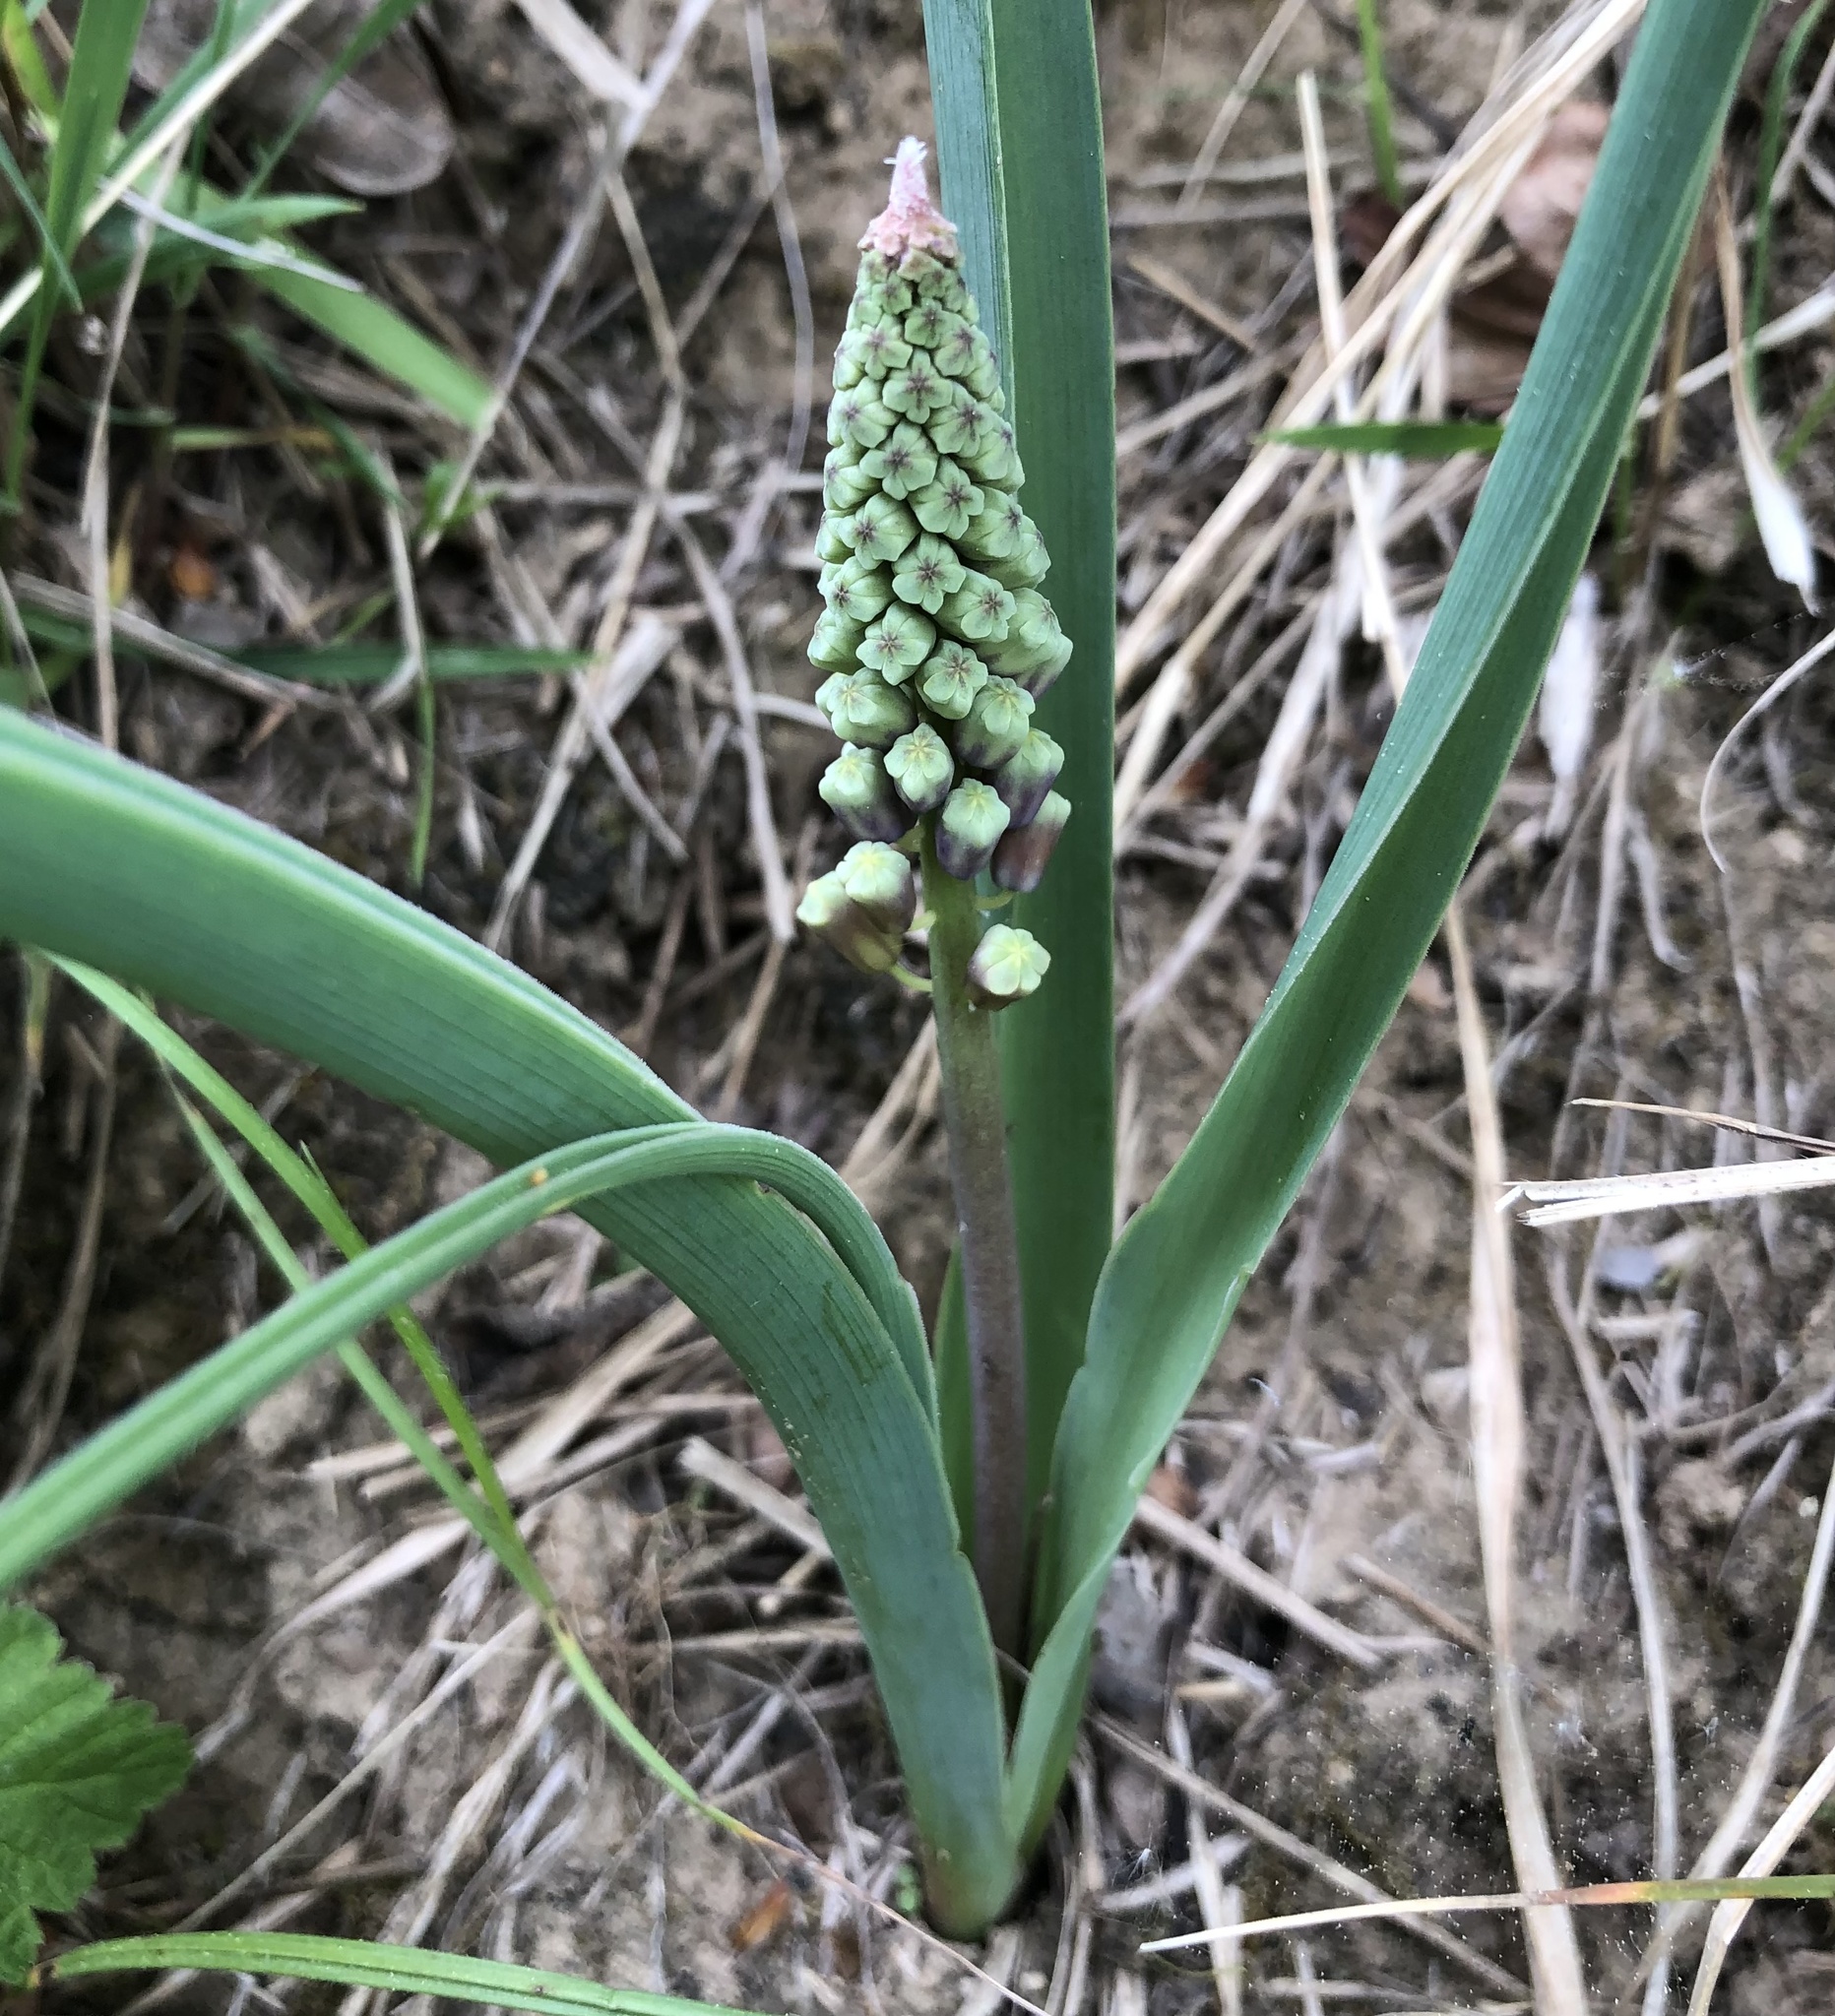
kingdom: Plantae
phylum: Tracheophyta
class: Liliopsida
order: Asparagales
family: Asparagaceae
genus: Muscari
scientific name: Muscari comosum
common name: Tassel hyacinth
